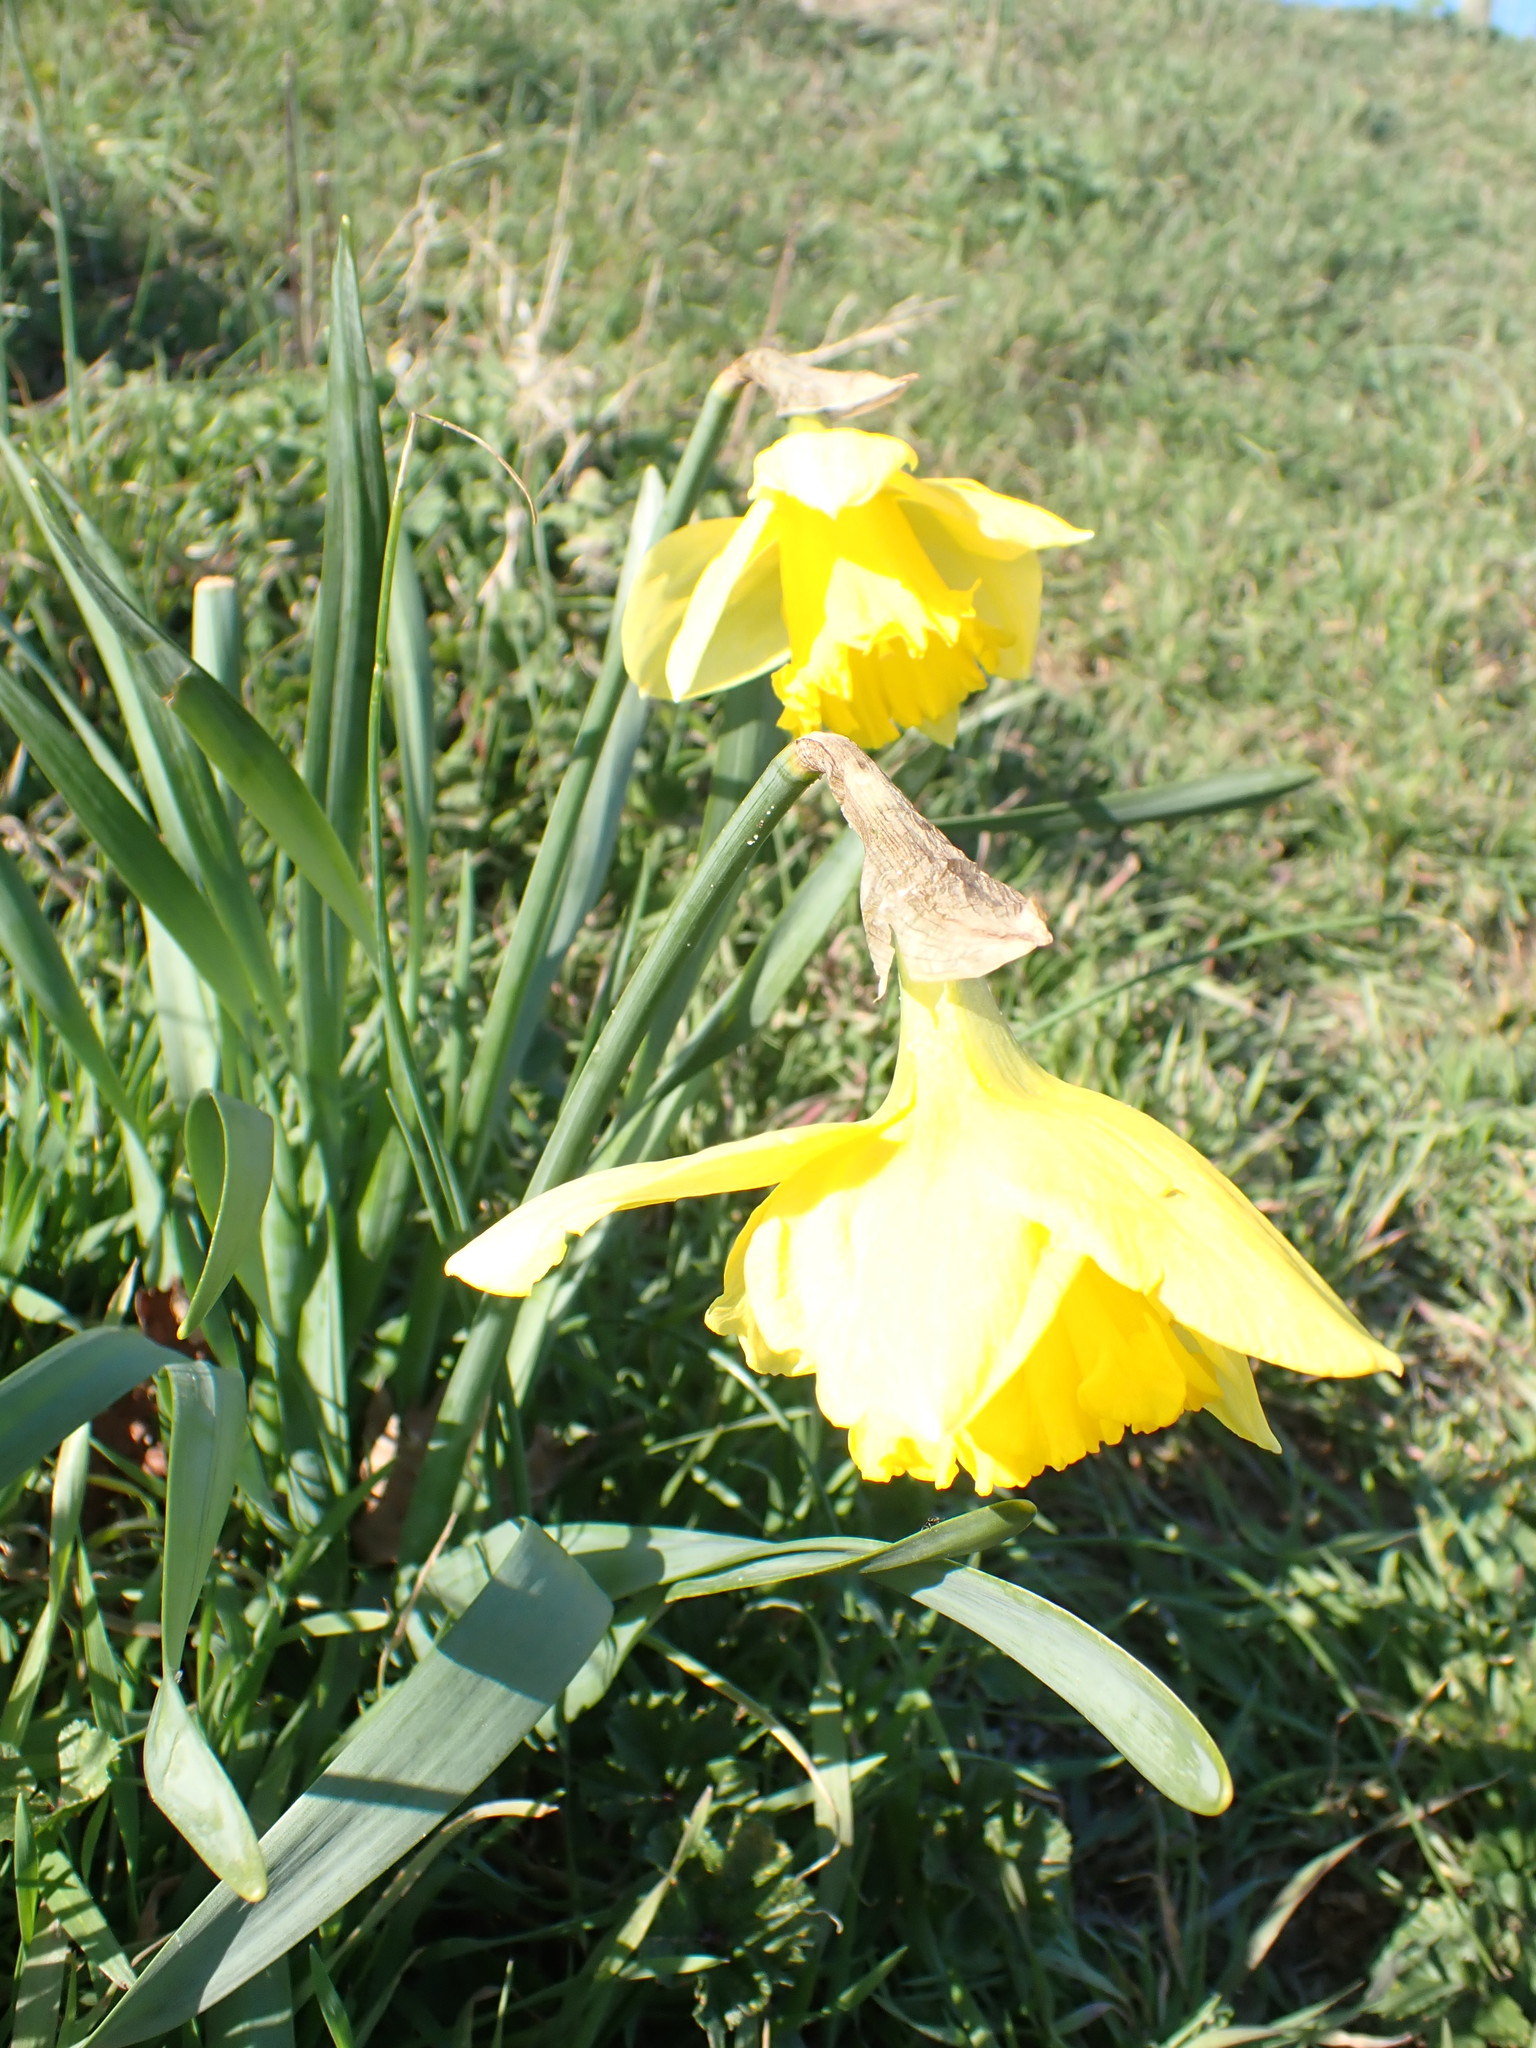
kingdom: Plantae
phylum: Tracheophyta
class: Liliopsida
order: Asparagales
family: Amaryllidaceae
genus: Narcissus
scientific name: Narcissus
